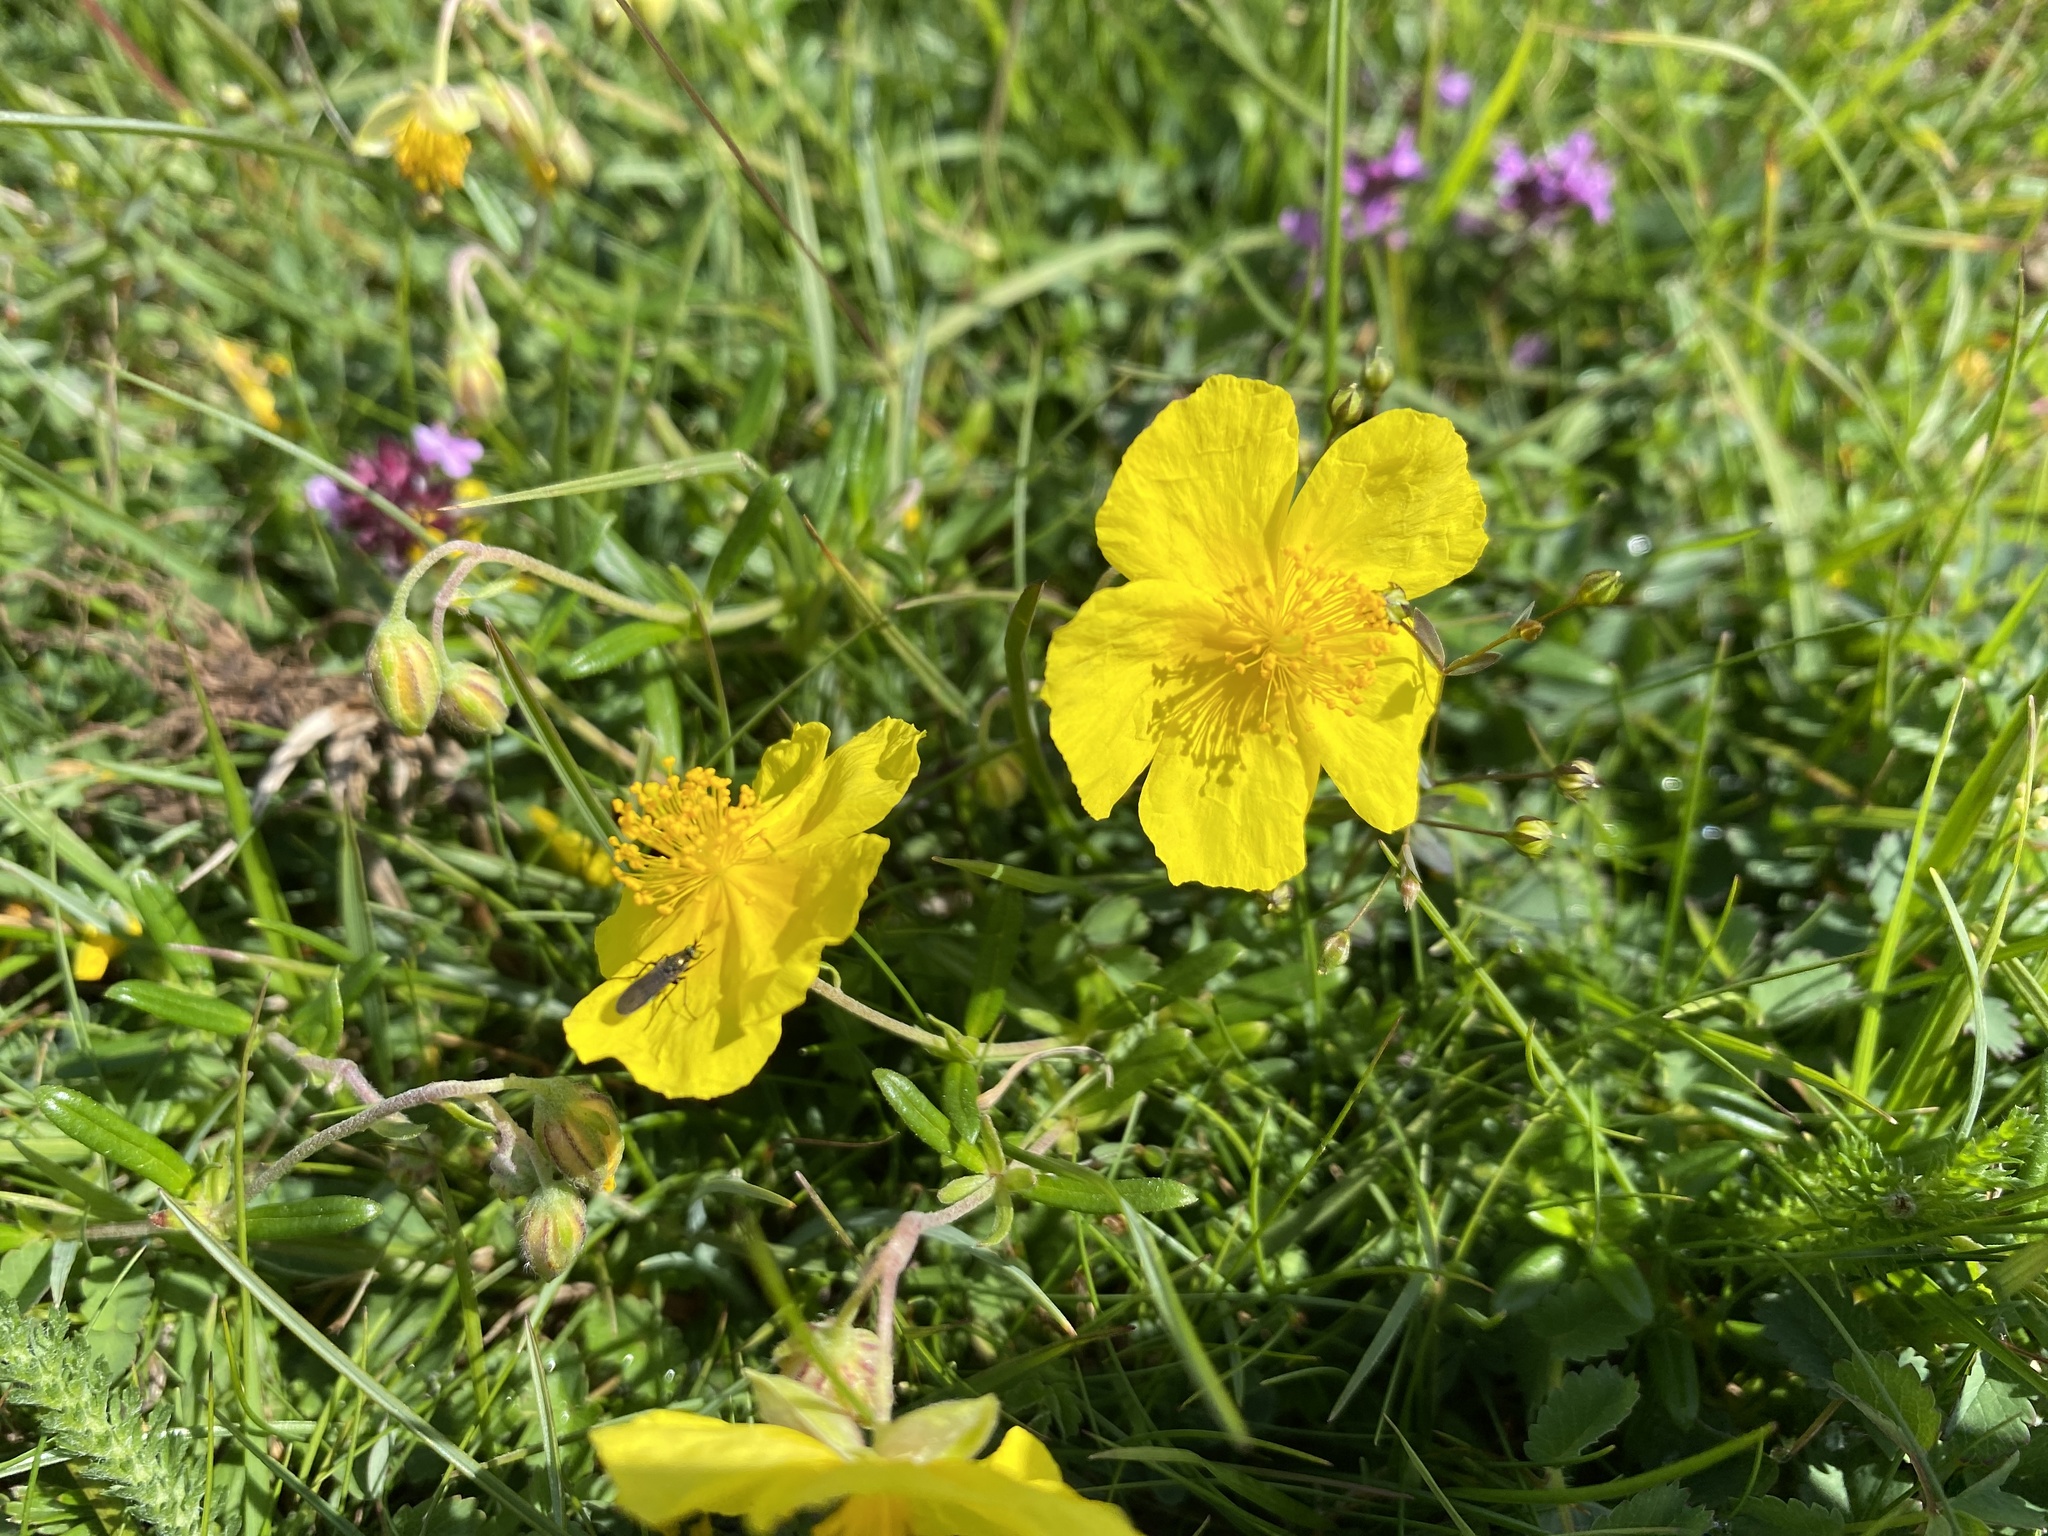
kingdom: Plantae
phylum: Tracheophyta
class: Magnoliopsida
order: Malvales
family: Cistaceae
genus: Helianthemum
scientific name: Helianthemum nummularium
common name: Common rock-rose
